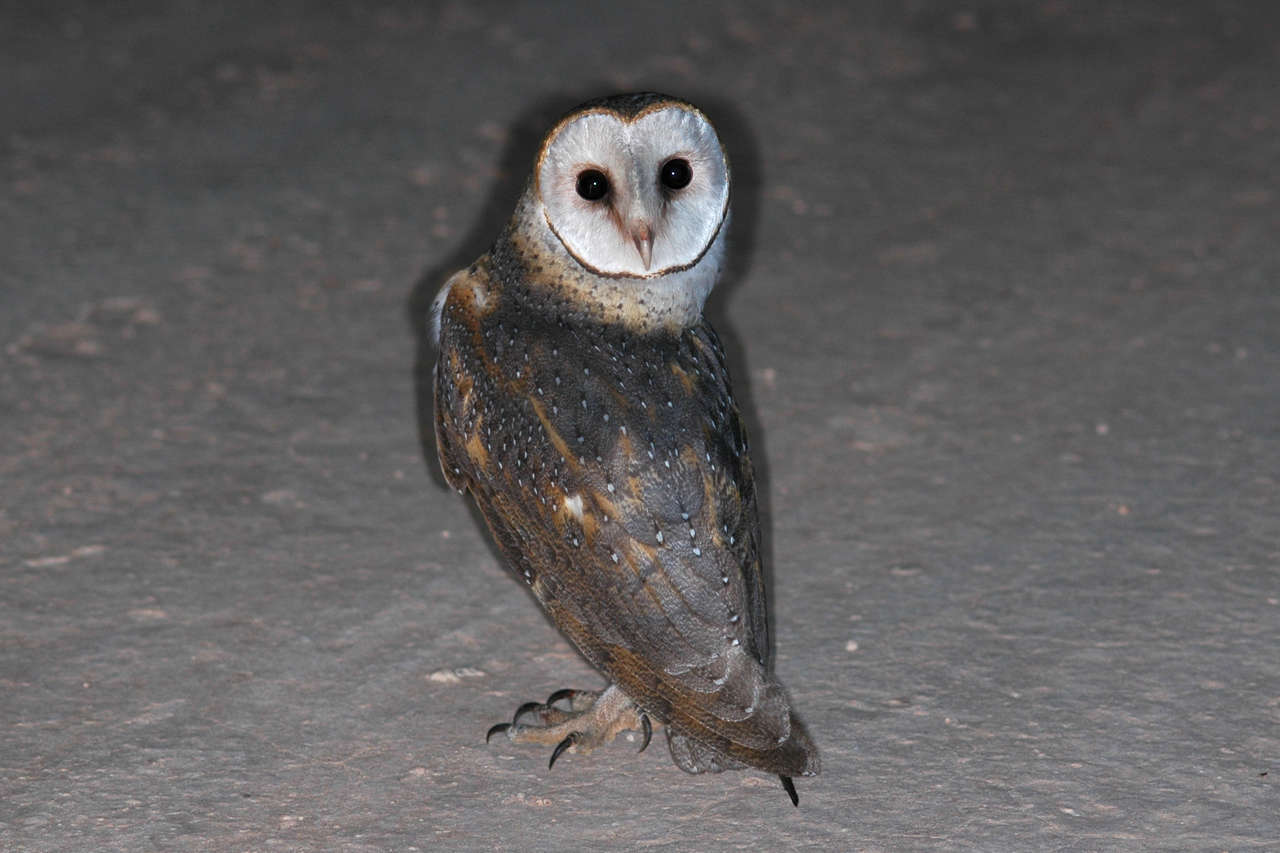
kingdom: Animalia
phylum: Chordata
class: Aves
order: Strigiformes
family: Tytonidae
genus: Tyto
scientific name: Tyto alba
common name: Barn owl
